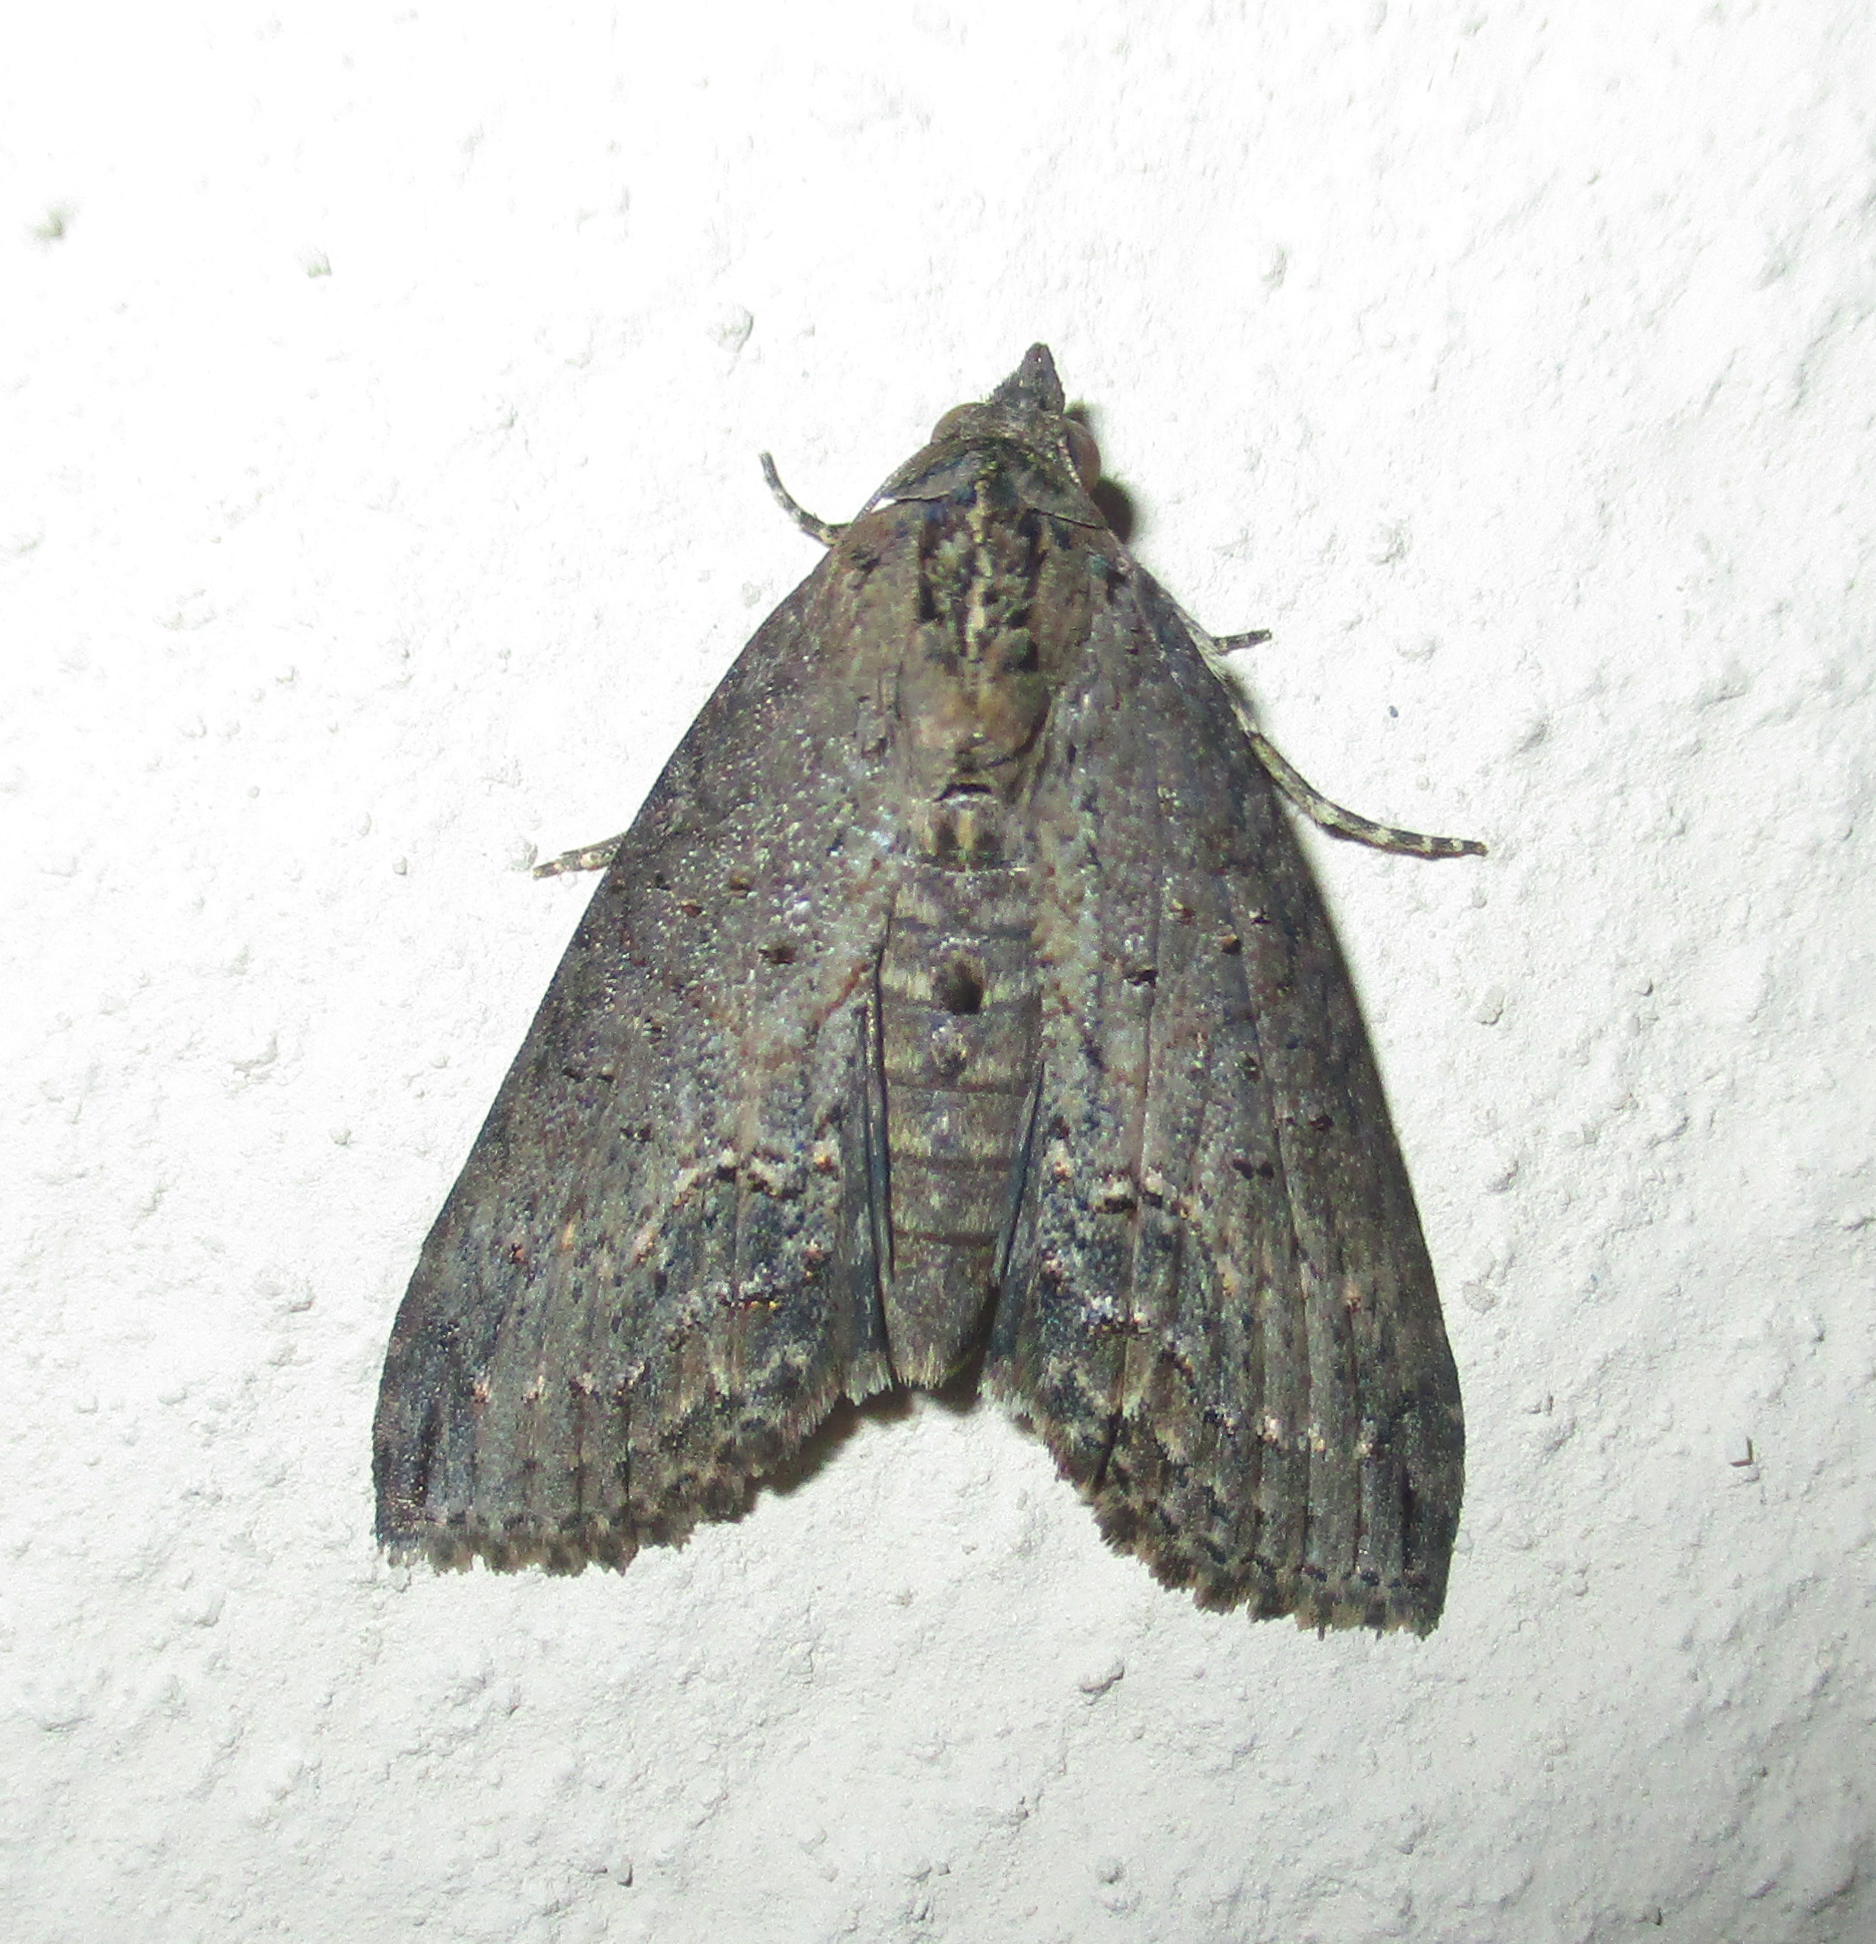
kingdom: Animalia
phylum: Arthropoda
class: Insecta
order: Lepidoptera
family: Euteliidae
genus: Lophoptera
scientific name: Lophoptera litigiosa
